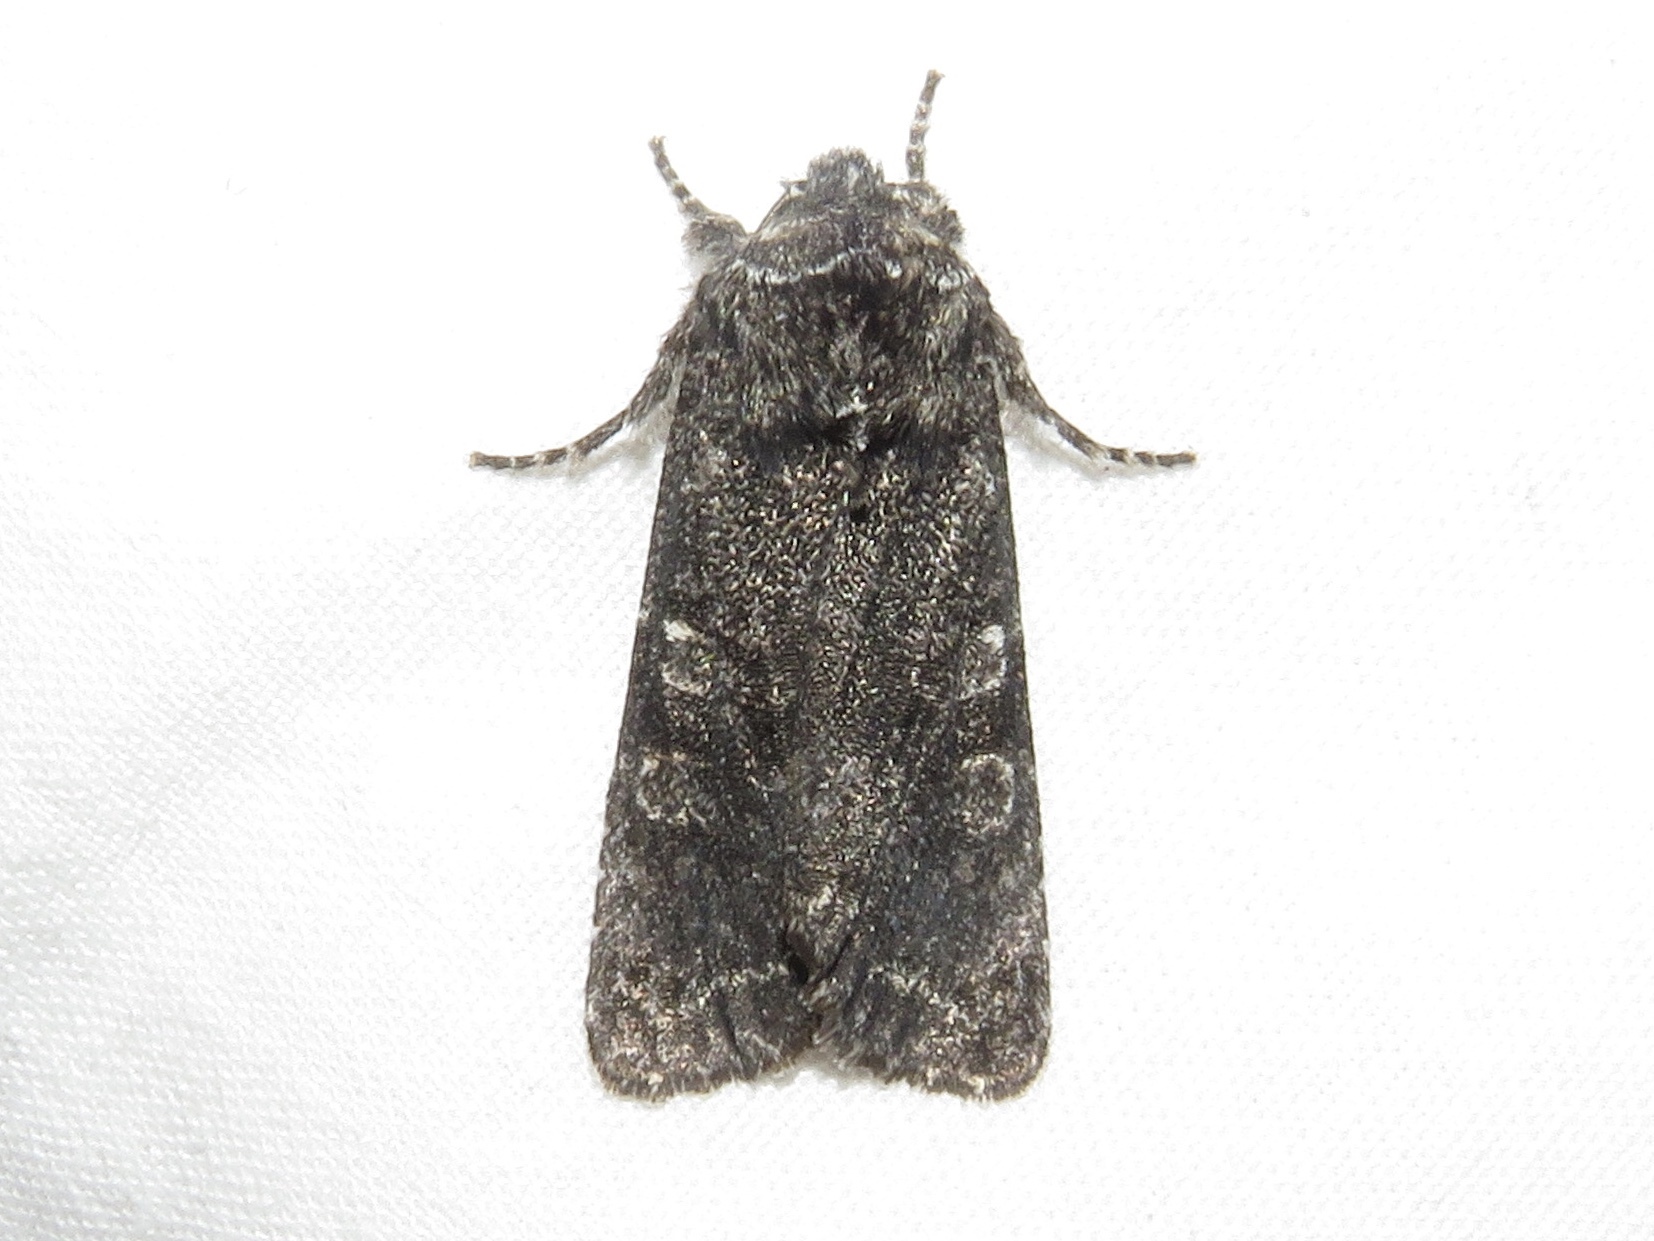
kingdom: Animalia
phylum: Arthropoda
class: Insecta
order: Lepidoptera
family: Noctuidae
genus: Egira
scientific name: Egira dolosa
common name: Lined black aspen cat.
